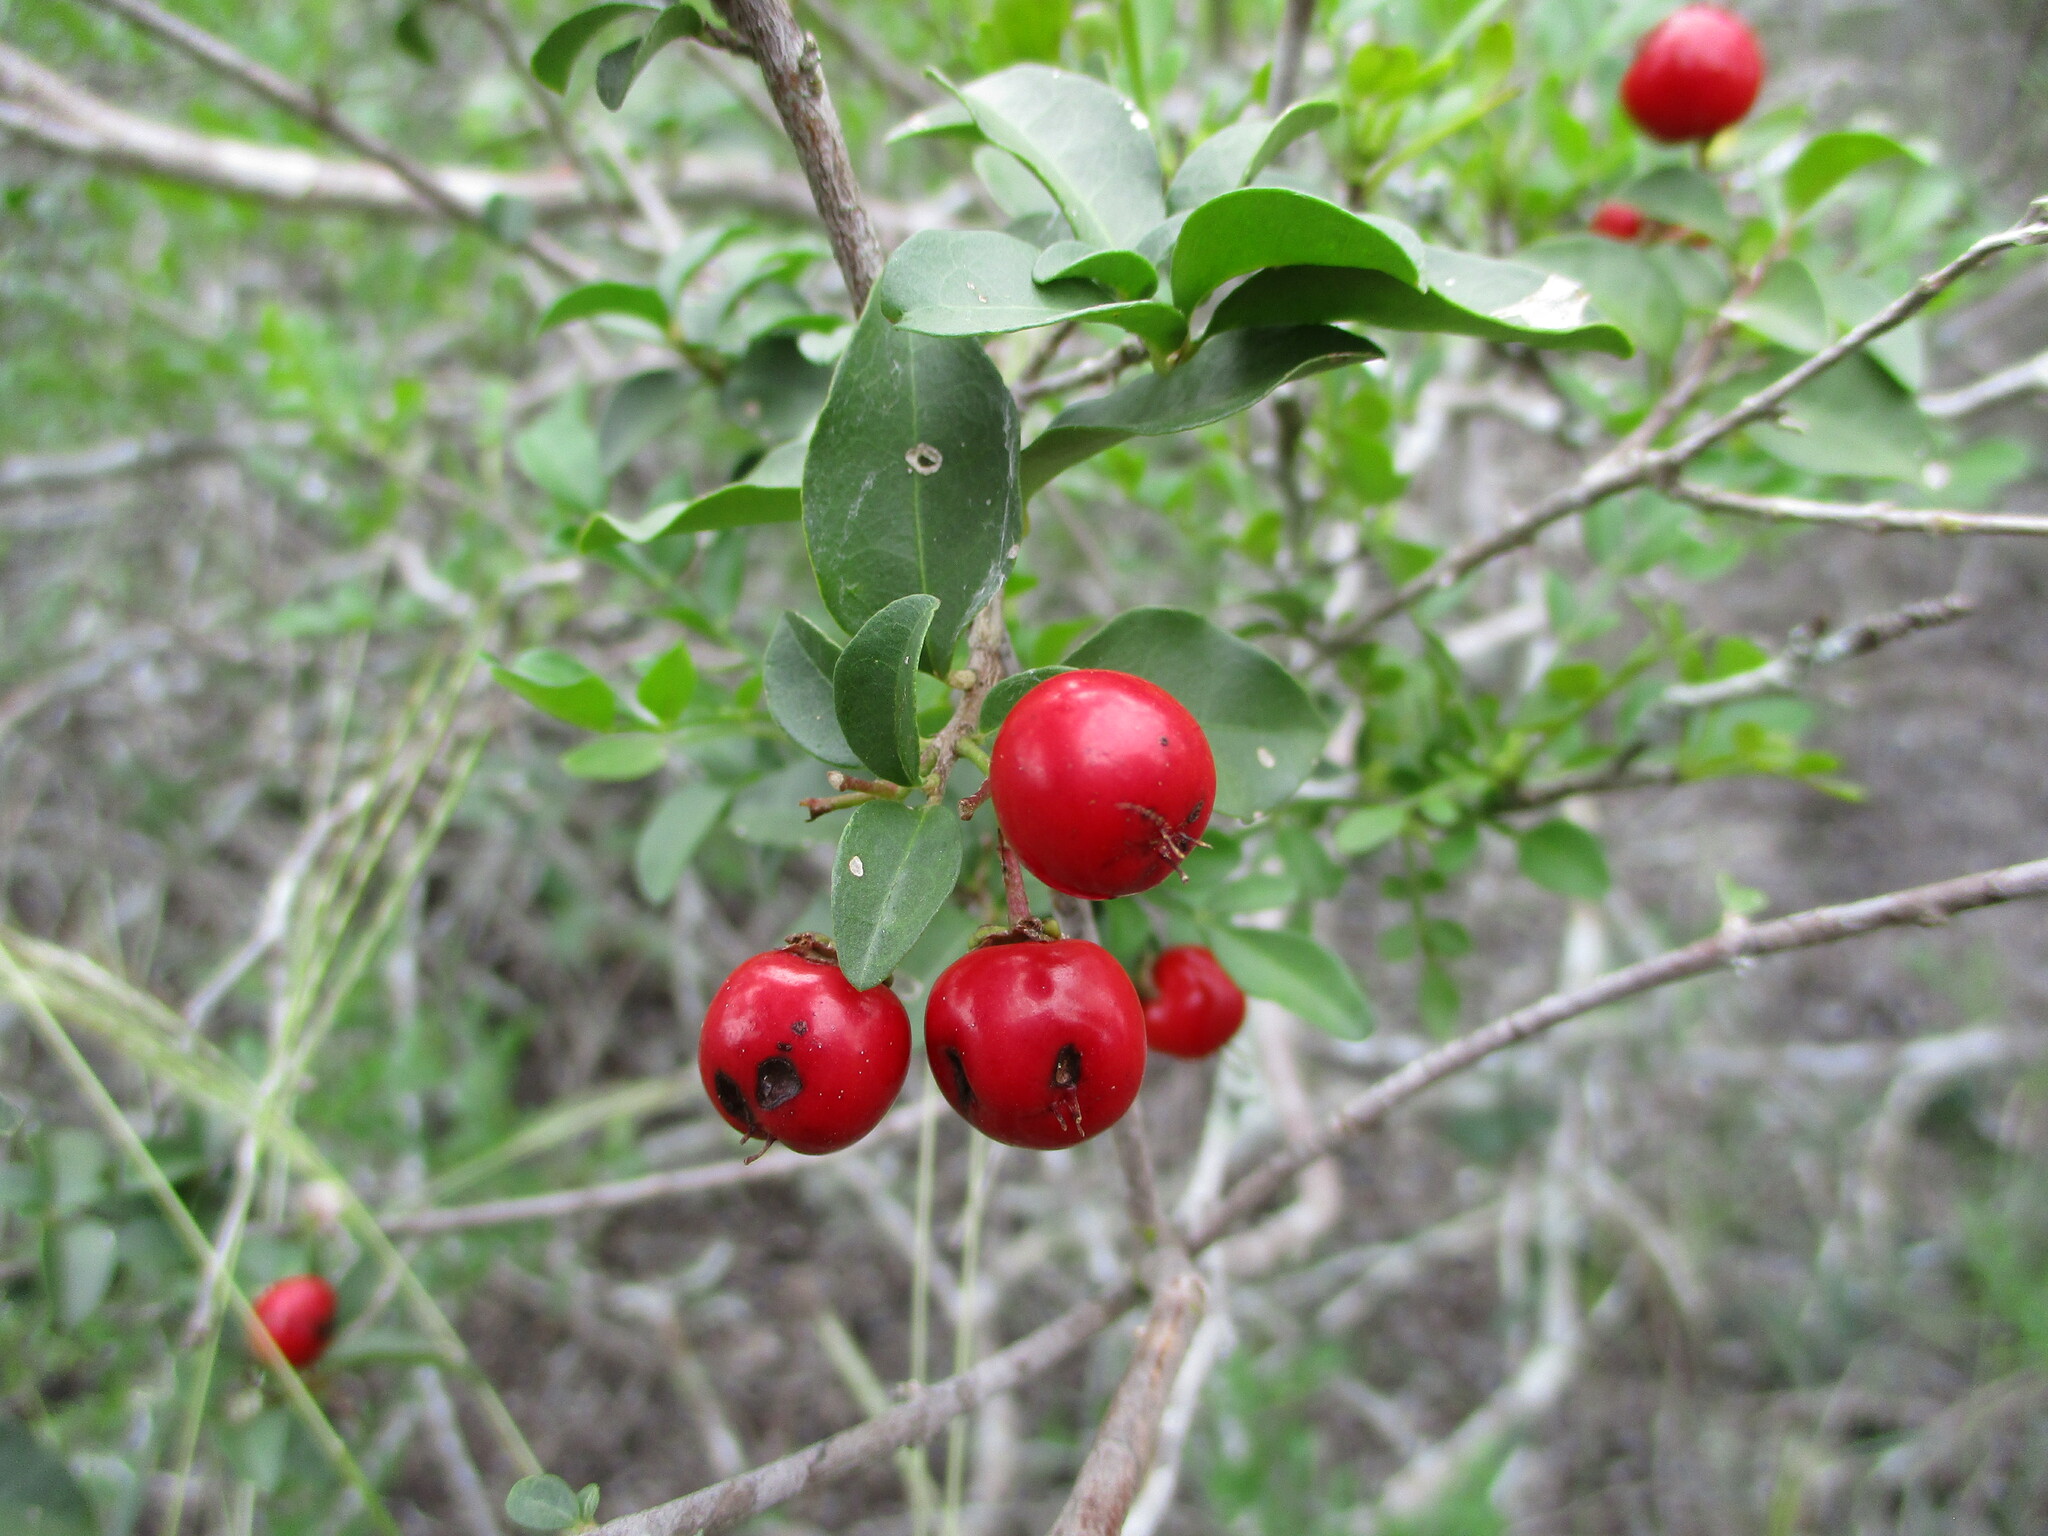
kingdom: Plantae
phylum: Tracheophyta
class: Magnoliopsida
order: Malpighiales
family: Malpighiaceae
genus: Malpighia
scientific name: Malpighia glabra
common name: Barbados cherry
